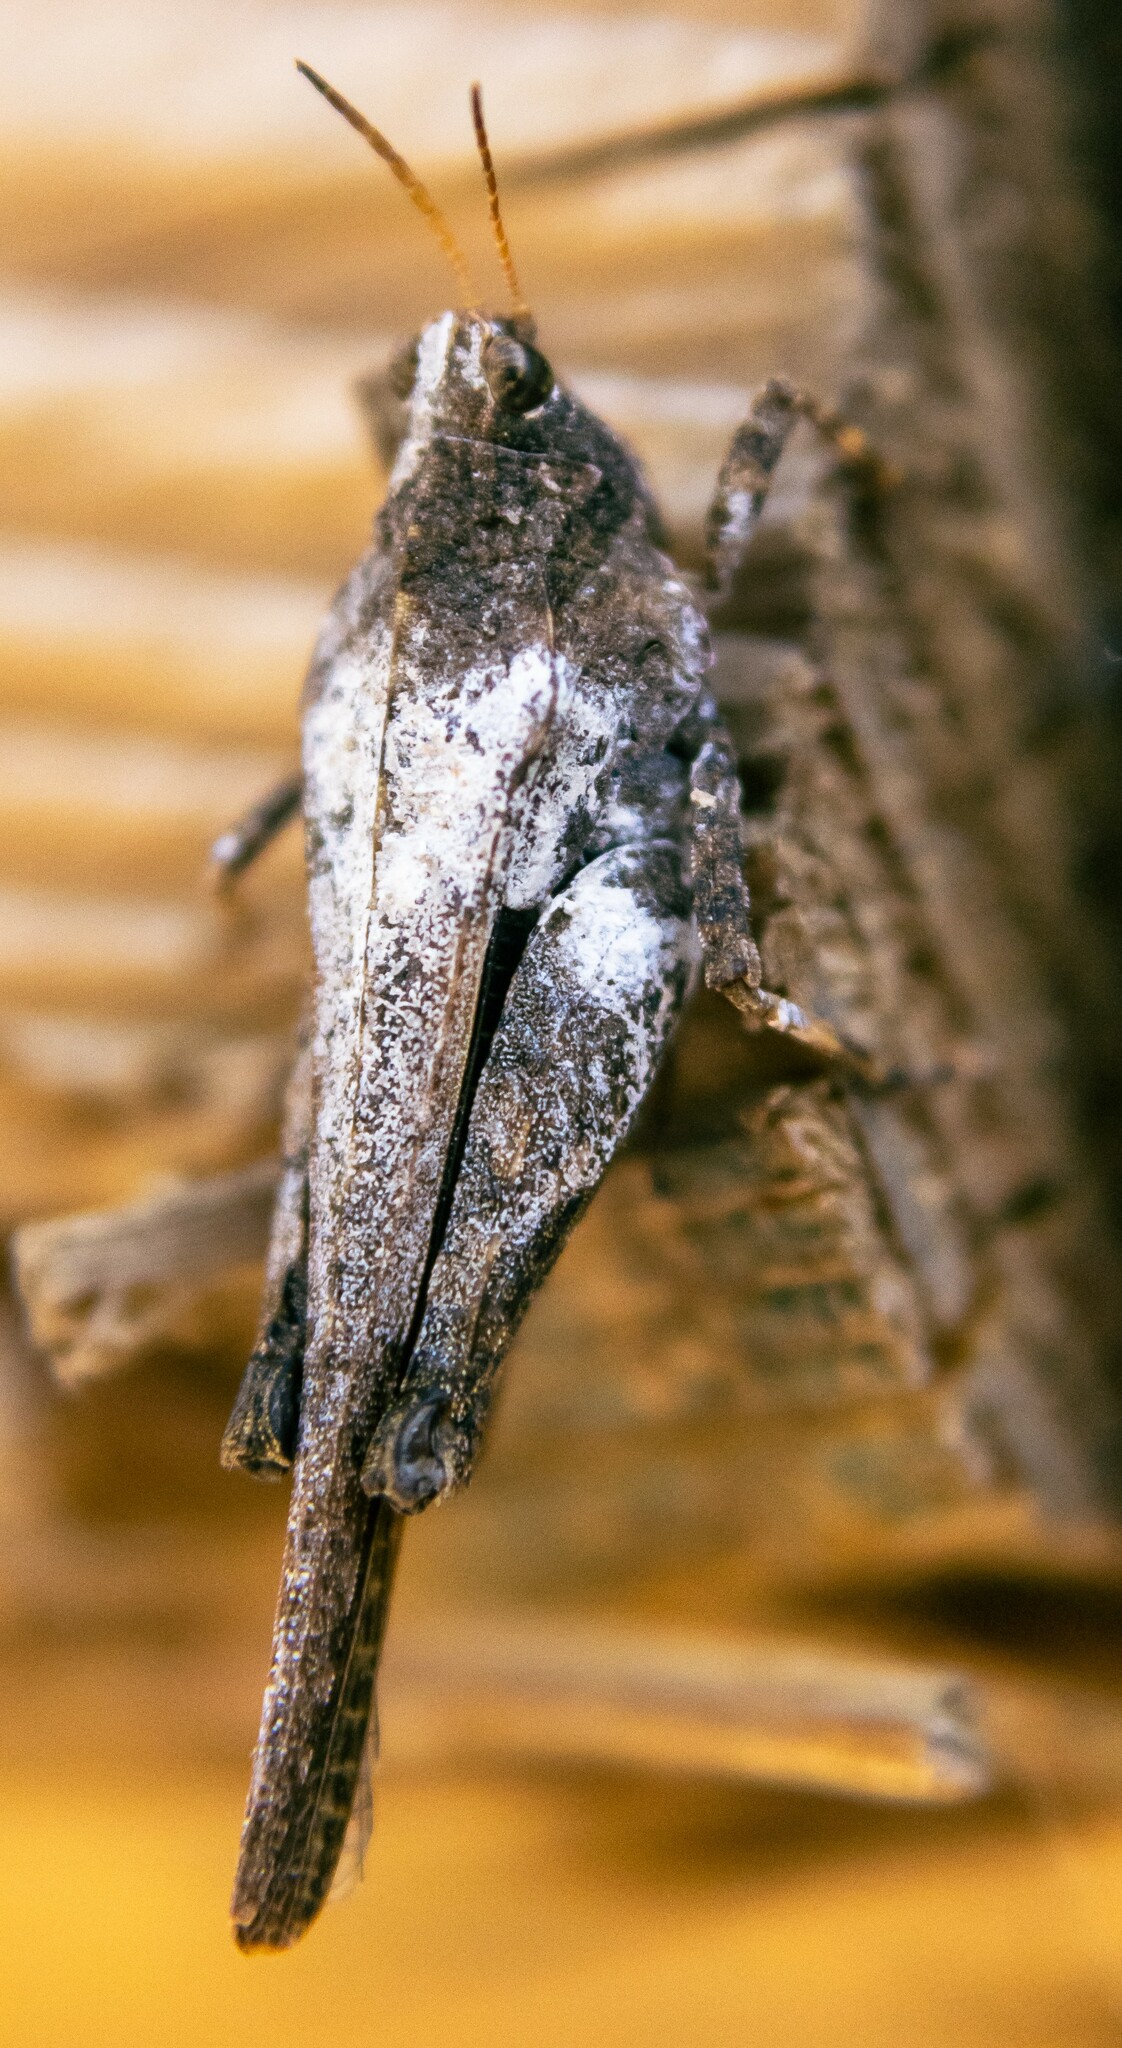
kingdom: Animalia
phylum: Arthropoda
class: Insecta
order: Orthoptera
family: Tetrigidae
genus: Tetrix
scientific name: Tetrix subulata
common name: Slender ground-hopper
